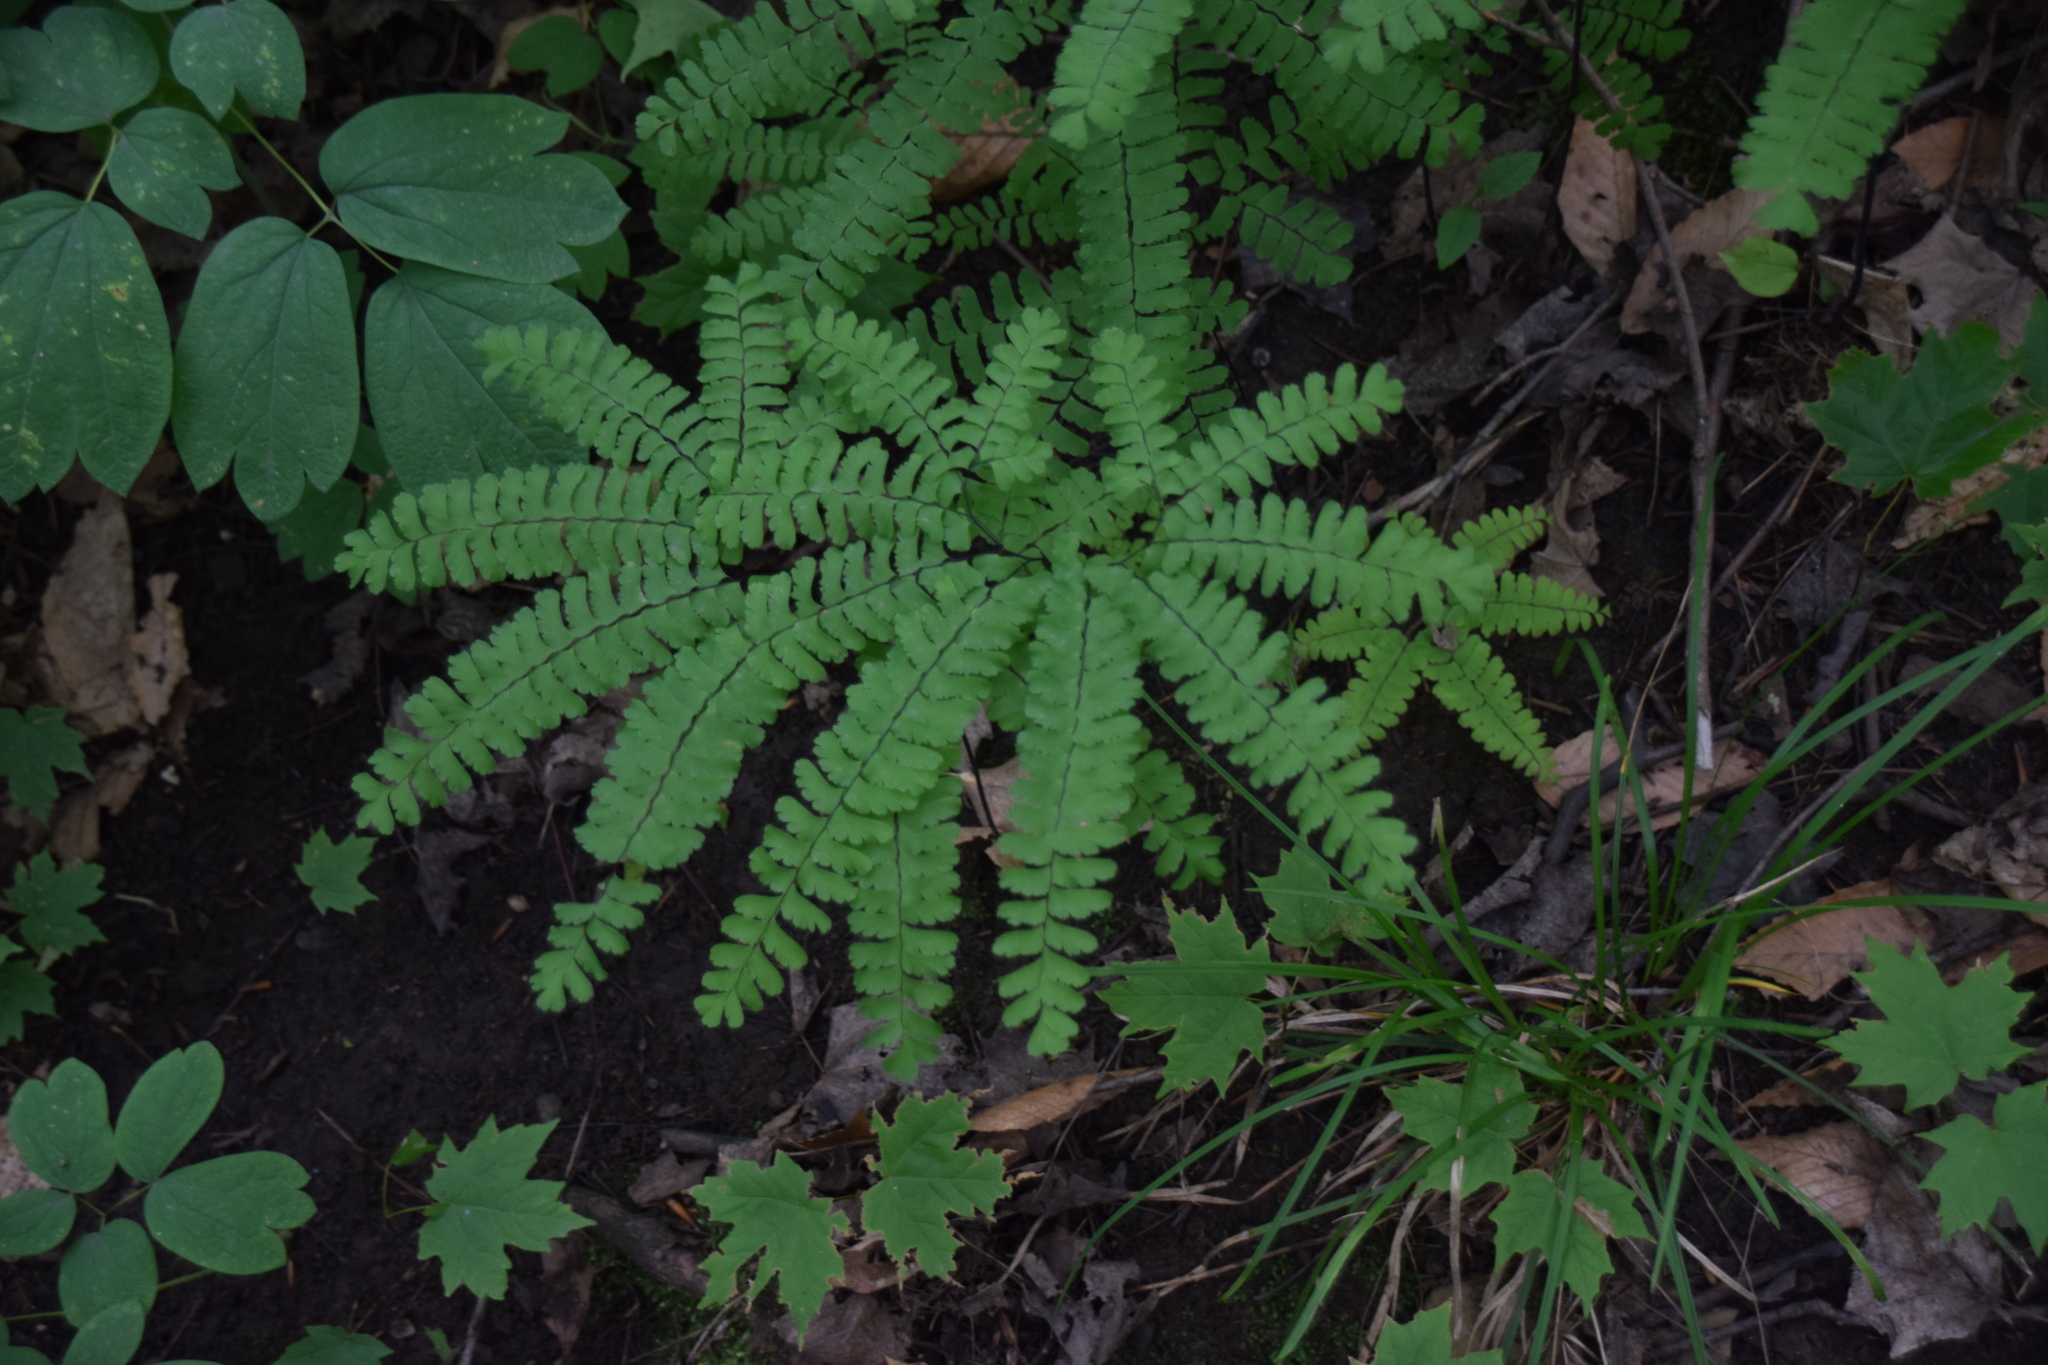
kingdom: Plantae
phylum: Tracheophyta
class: Polypodiopsida
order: Polypodiales
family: Pteridaceae
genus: Adiantum
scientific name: Adiantum pedatum
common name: Five-finger fern
